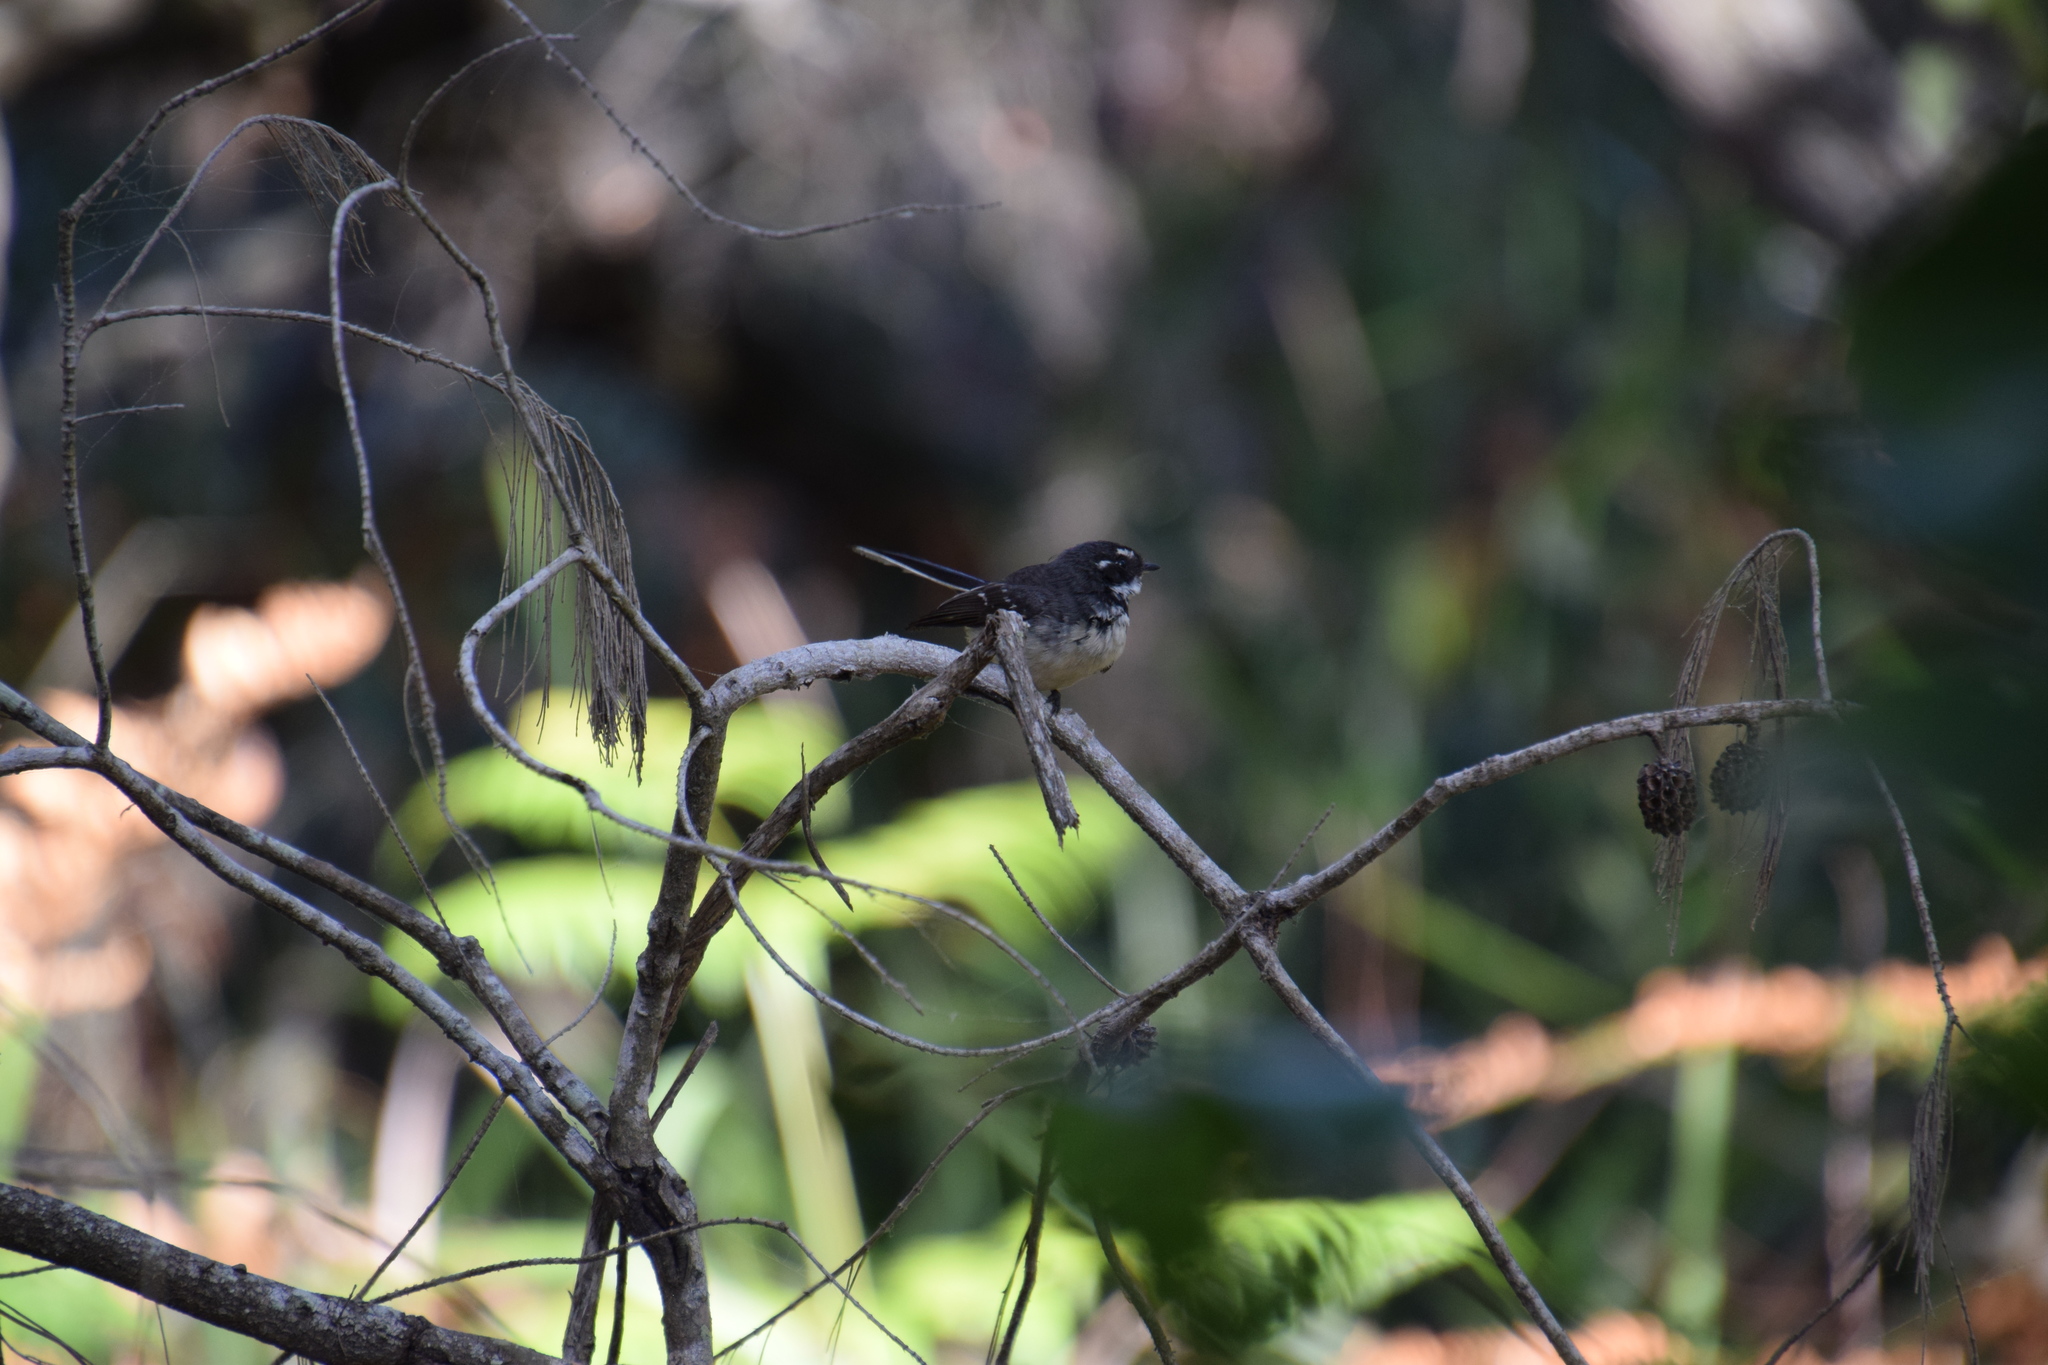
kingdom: Animalia
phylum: Chordata
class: Aves
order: Passeriformes
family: Rhipiduridae
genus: Rhipidura
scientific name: Rhipidura albiscapa
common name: Grey fantail
